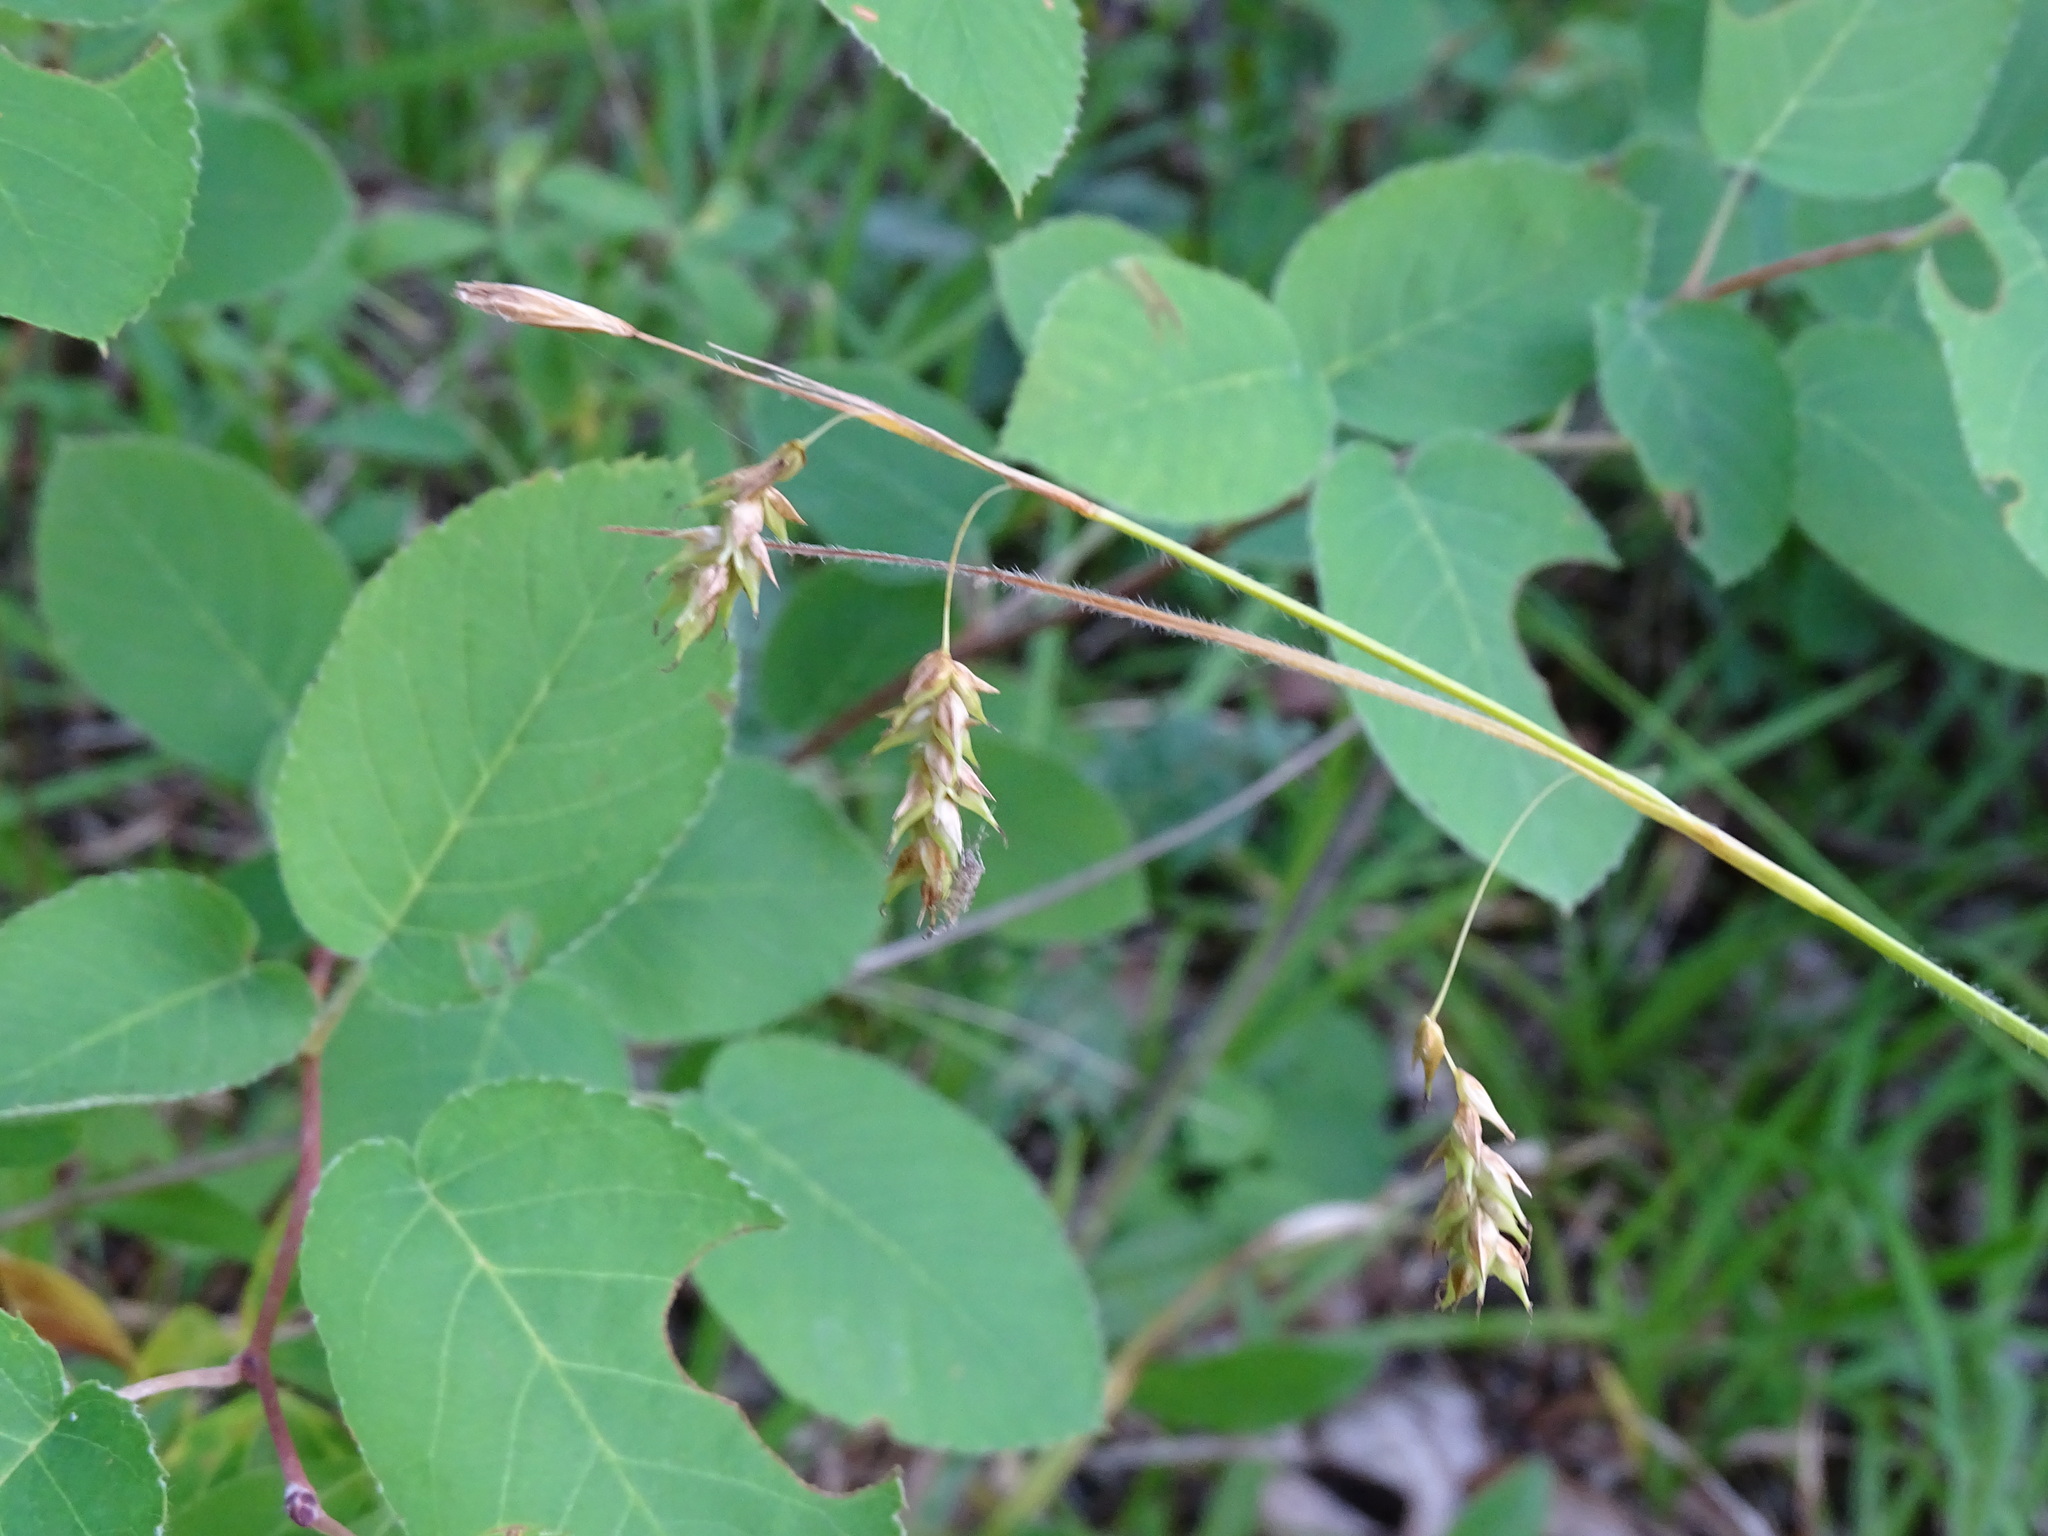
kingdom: Plantae
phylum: Tracheophyta
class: Liliopsida
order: Poales
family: Cyperaceae
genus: Carex
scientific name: Carex castanea
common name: Chestnut sedge
